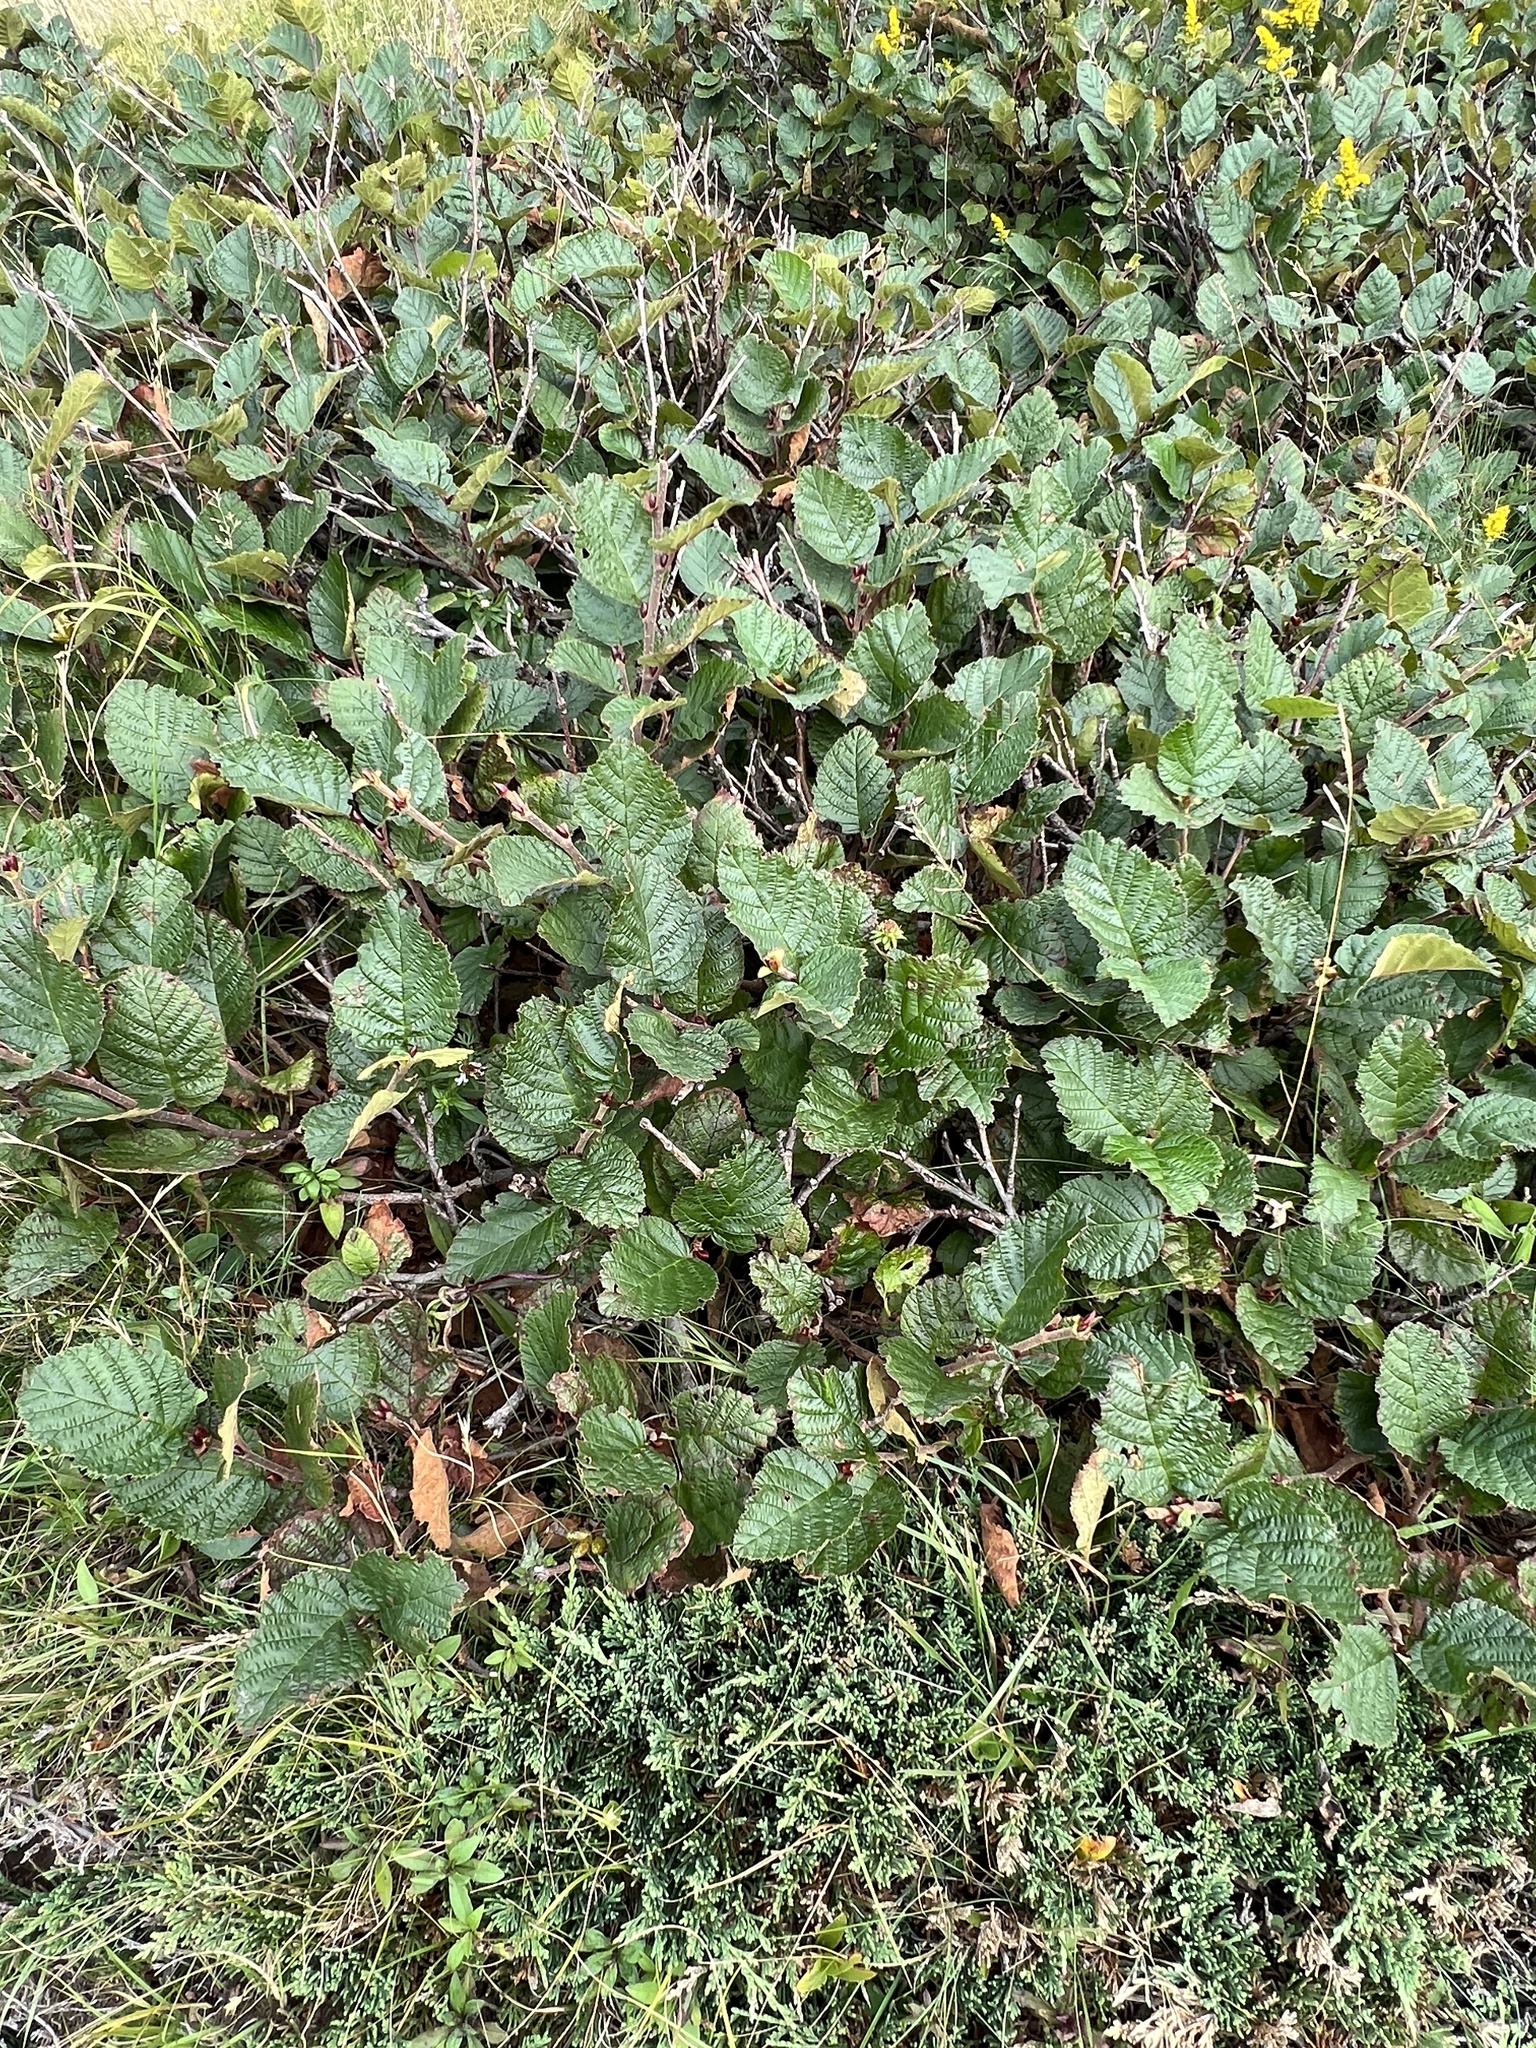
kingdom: Plantae
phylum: Tracheophyta
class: Magnoliopsida
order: Fagales
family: Betulaceae
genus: Alnus
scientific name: Alnus alnobetula
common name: Green alder
